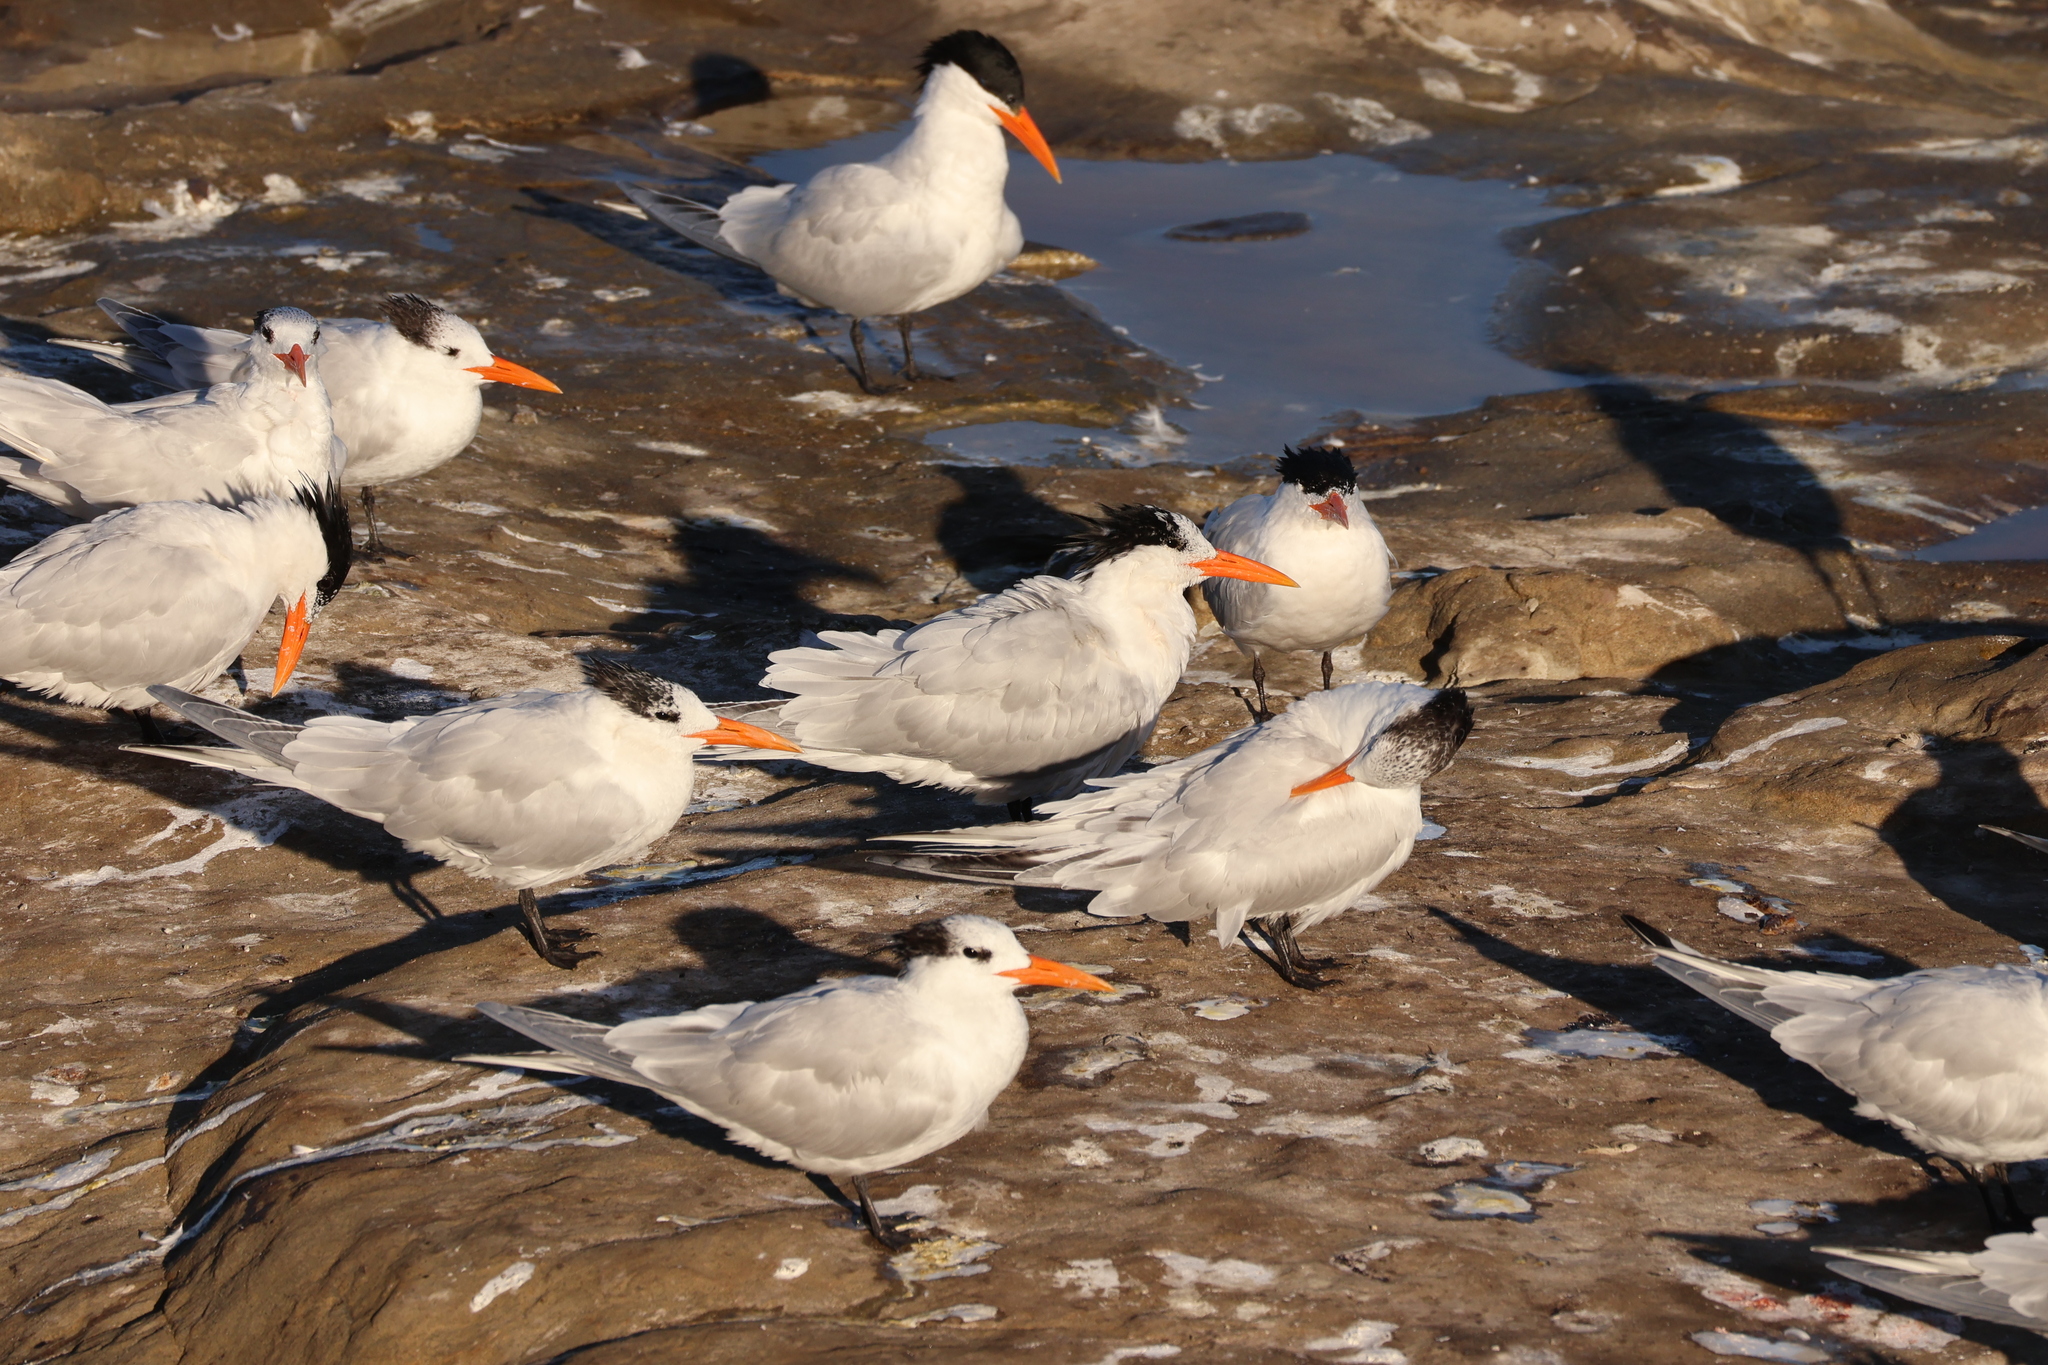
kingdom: Animalia
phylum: Chordata
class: Aves
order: Charadriiformes
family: Laridae
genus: Thalasseus
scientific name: Thalasseus maximus
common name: Royal tern
